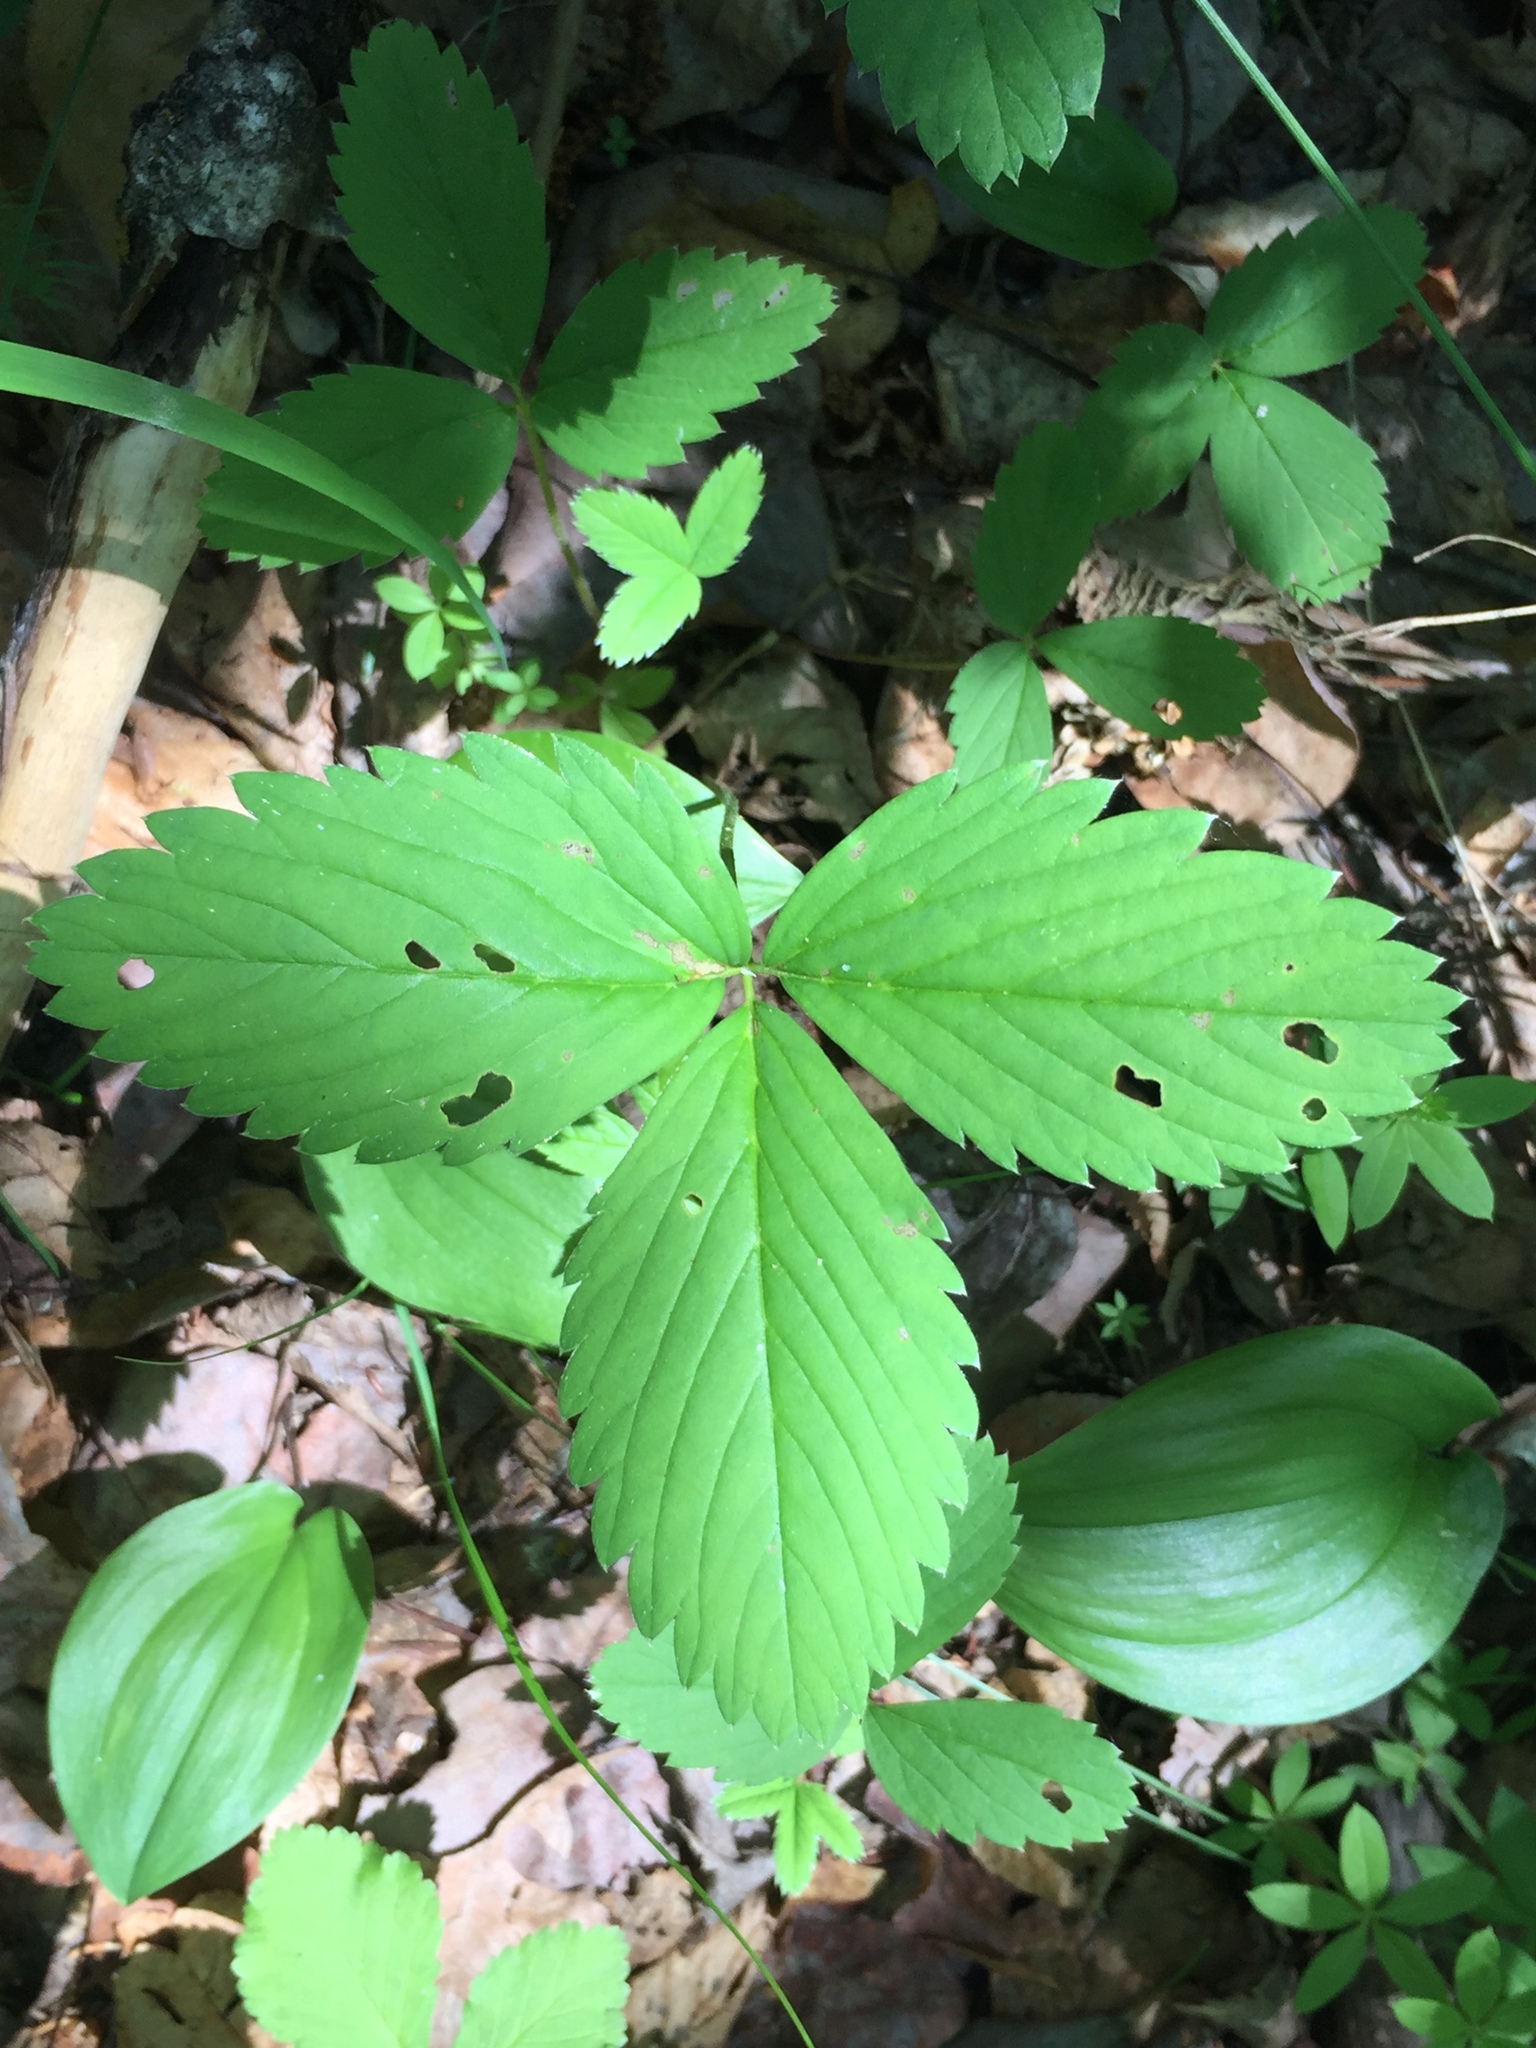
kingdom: Plantae
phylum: Tracheophyta
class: Magnoliopsida
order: Rosales
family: Rosaceae
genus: Fragaria
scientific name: Fragaria virginiana
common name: Thickleaved wild strawberry
